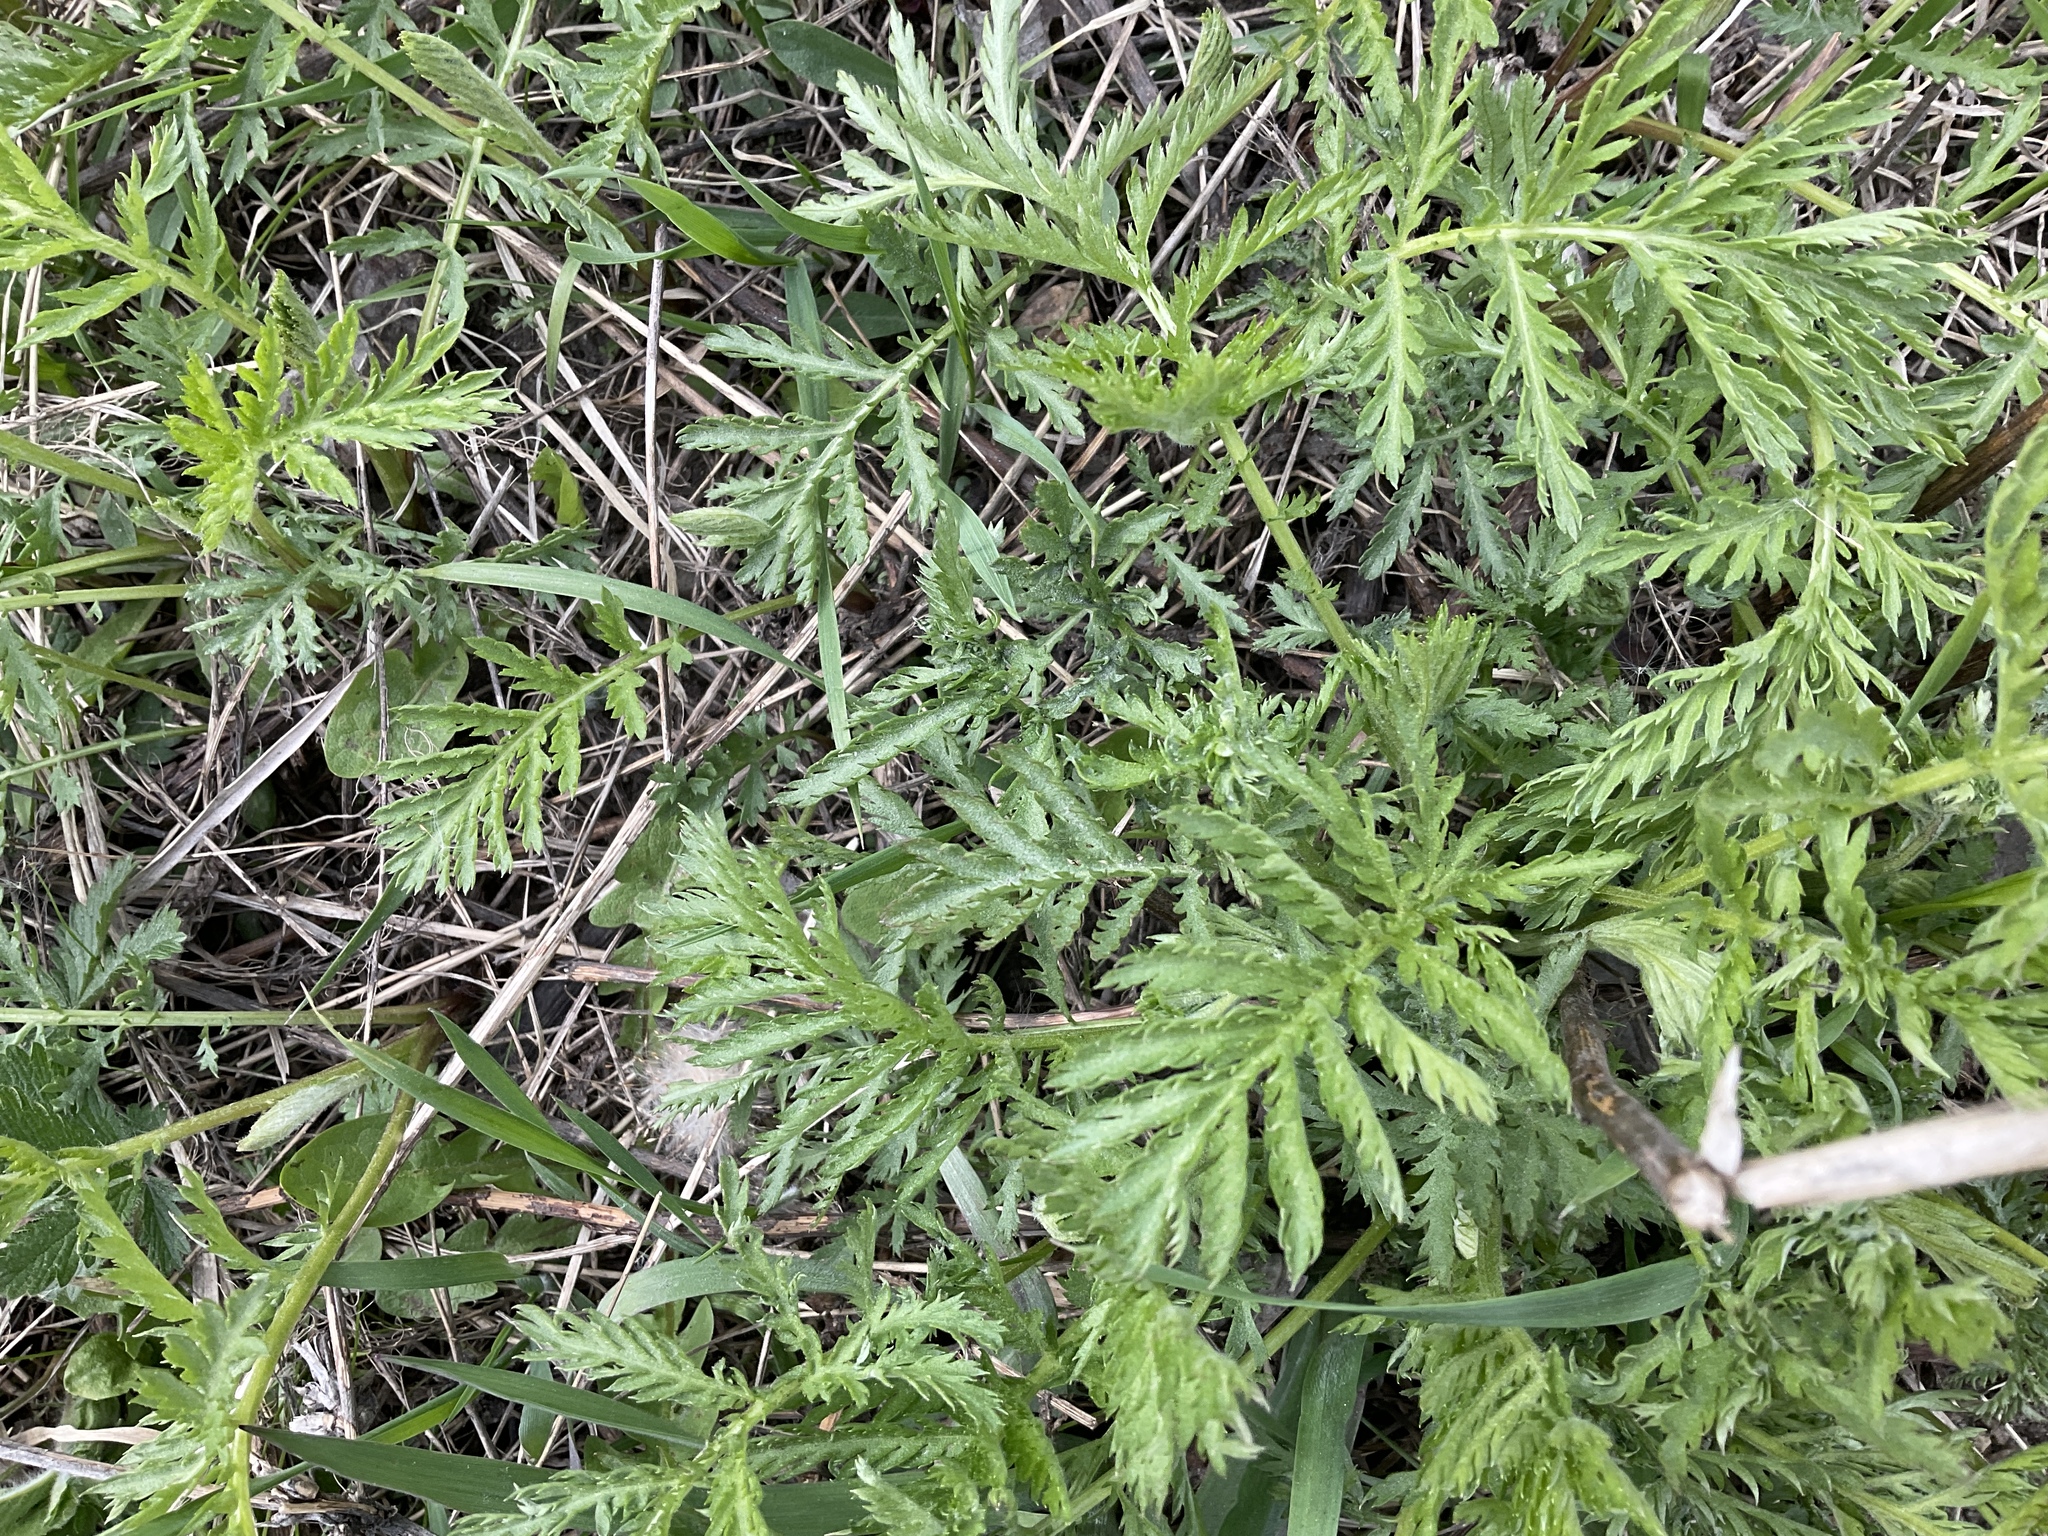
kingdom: Plantae
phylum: Tracheophyta
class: Magnoliopsida
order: Asterales
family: Asteraceae
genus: Tanacetum
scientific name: Tanacetum vulgare
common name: Common tansy
